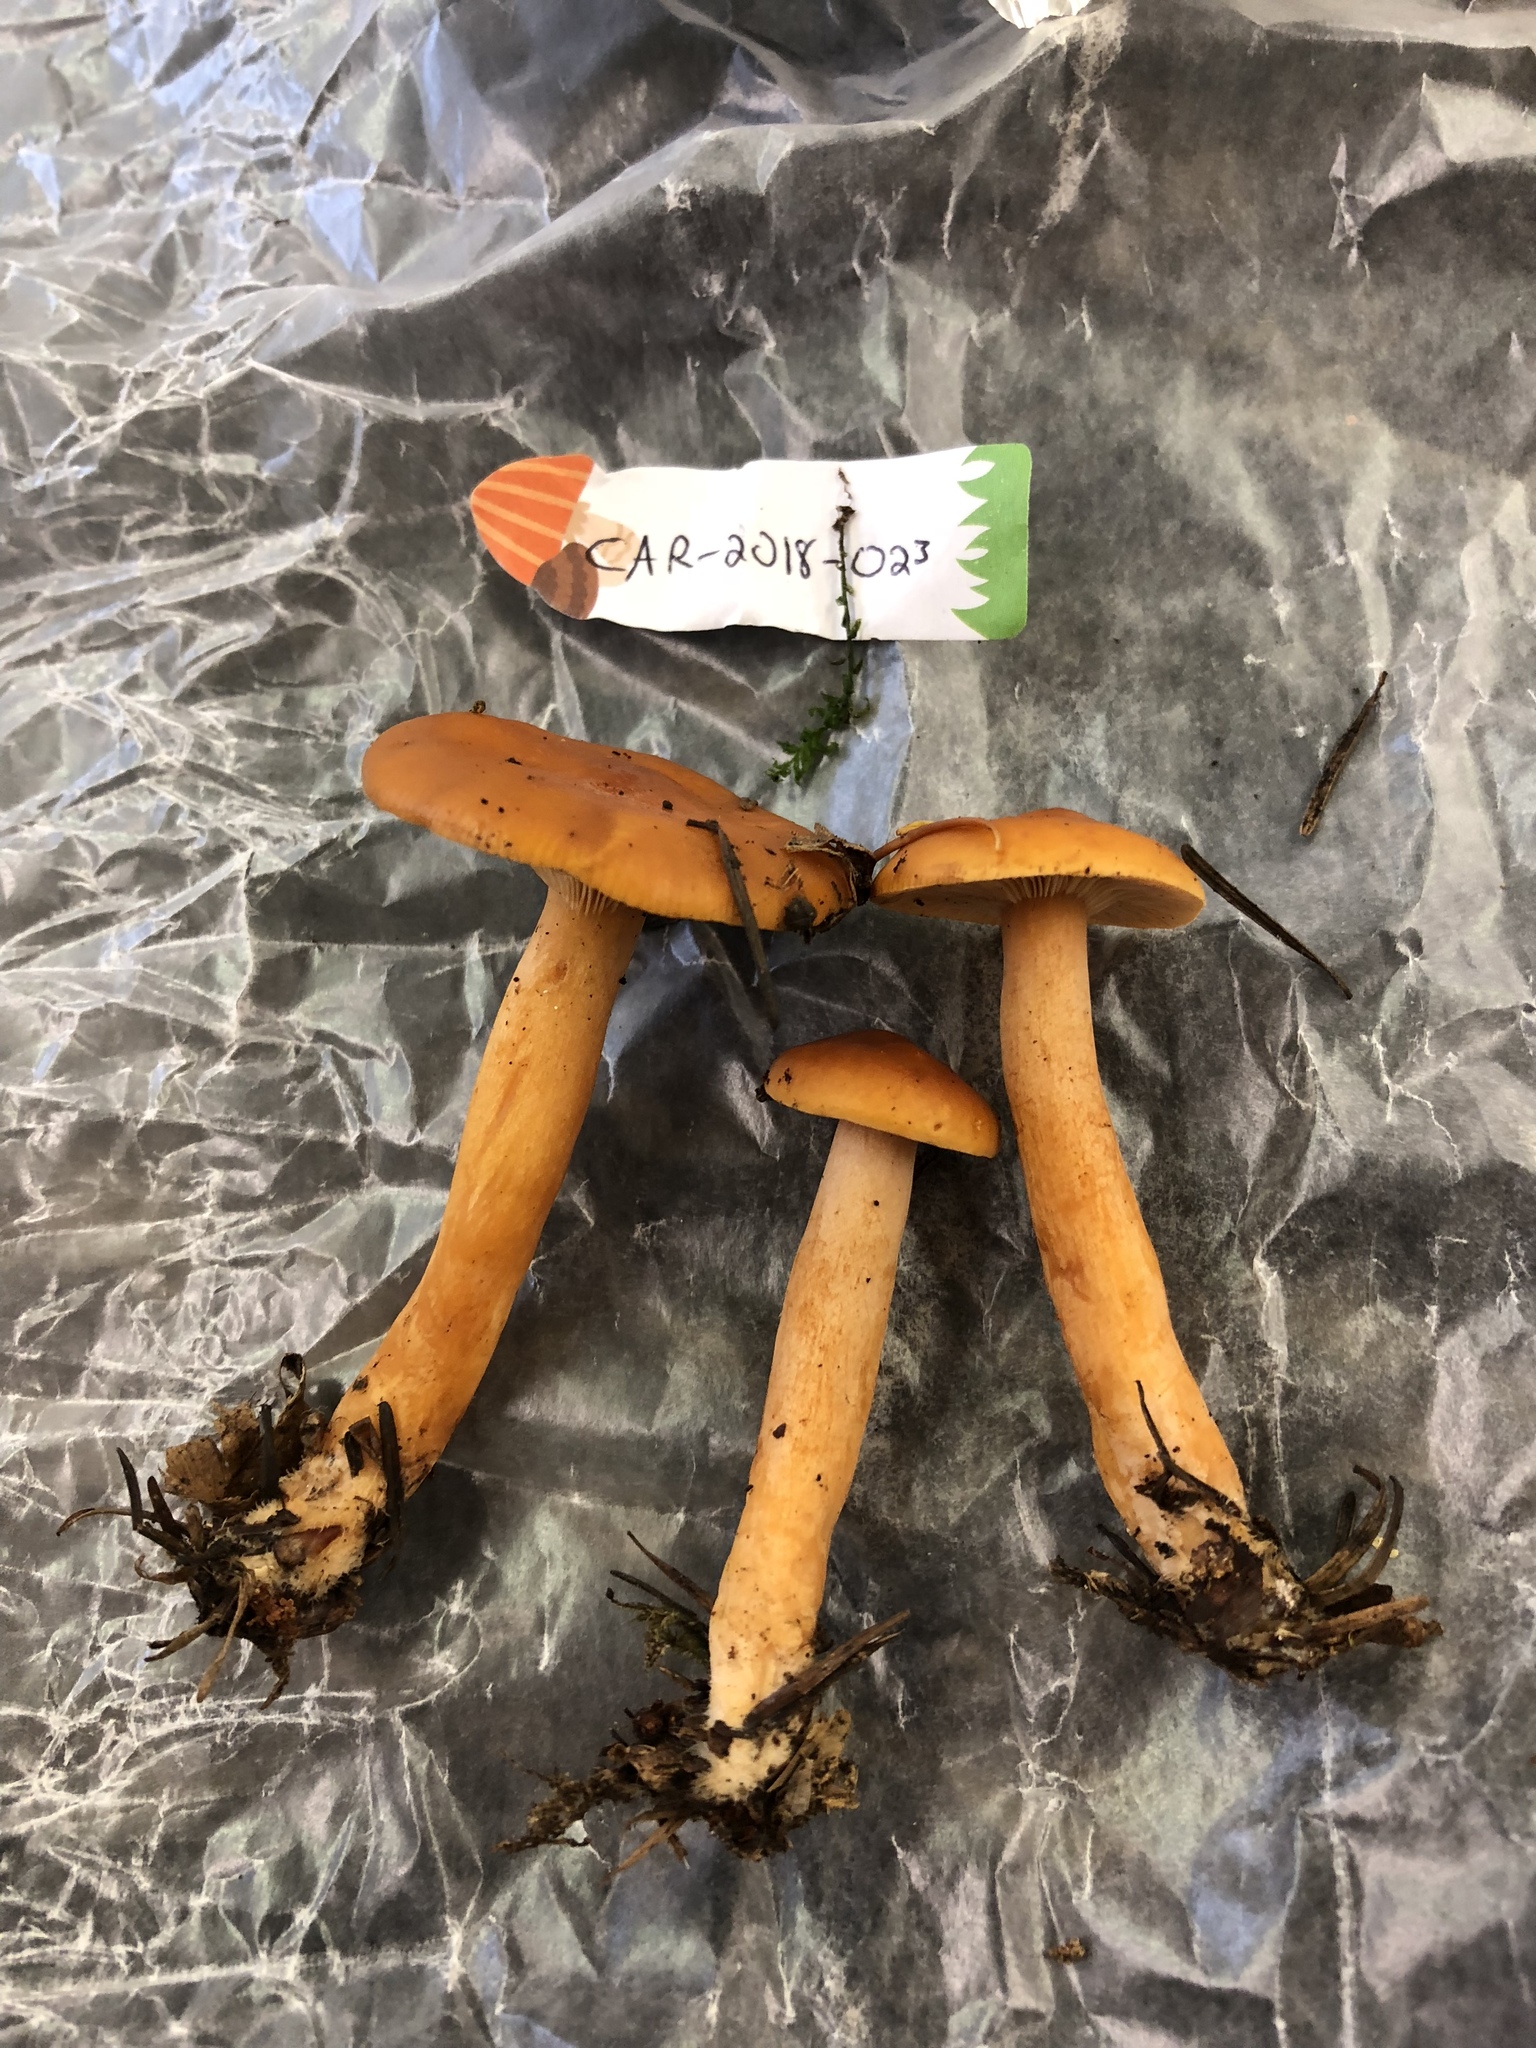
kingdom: Fungi
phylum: Basidiomycota
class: Agaricomycetes
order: Russulales
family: Russulaceae
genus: Lactarius
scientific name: Lactarius rubidus
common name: Candy cap
